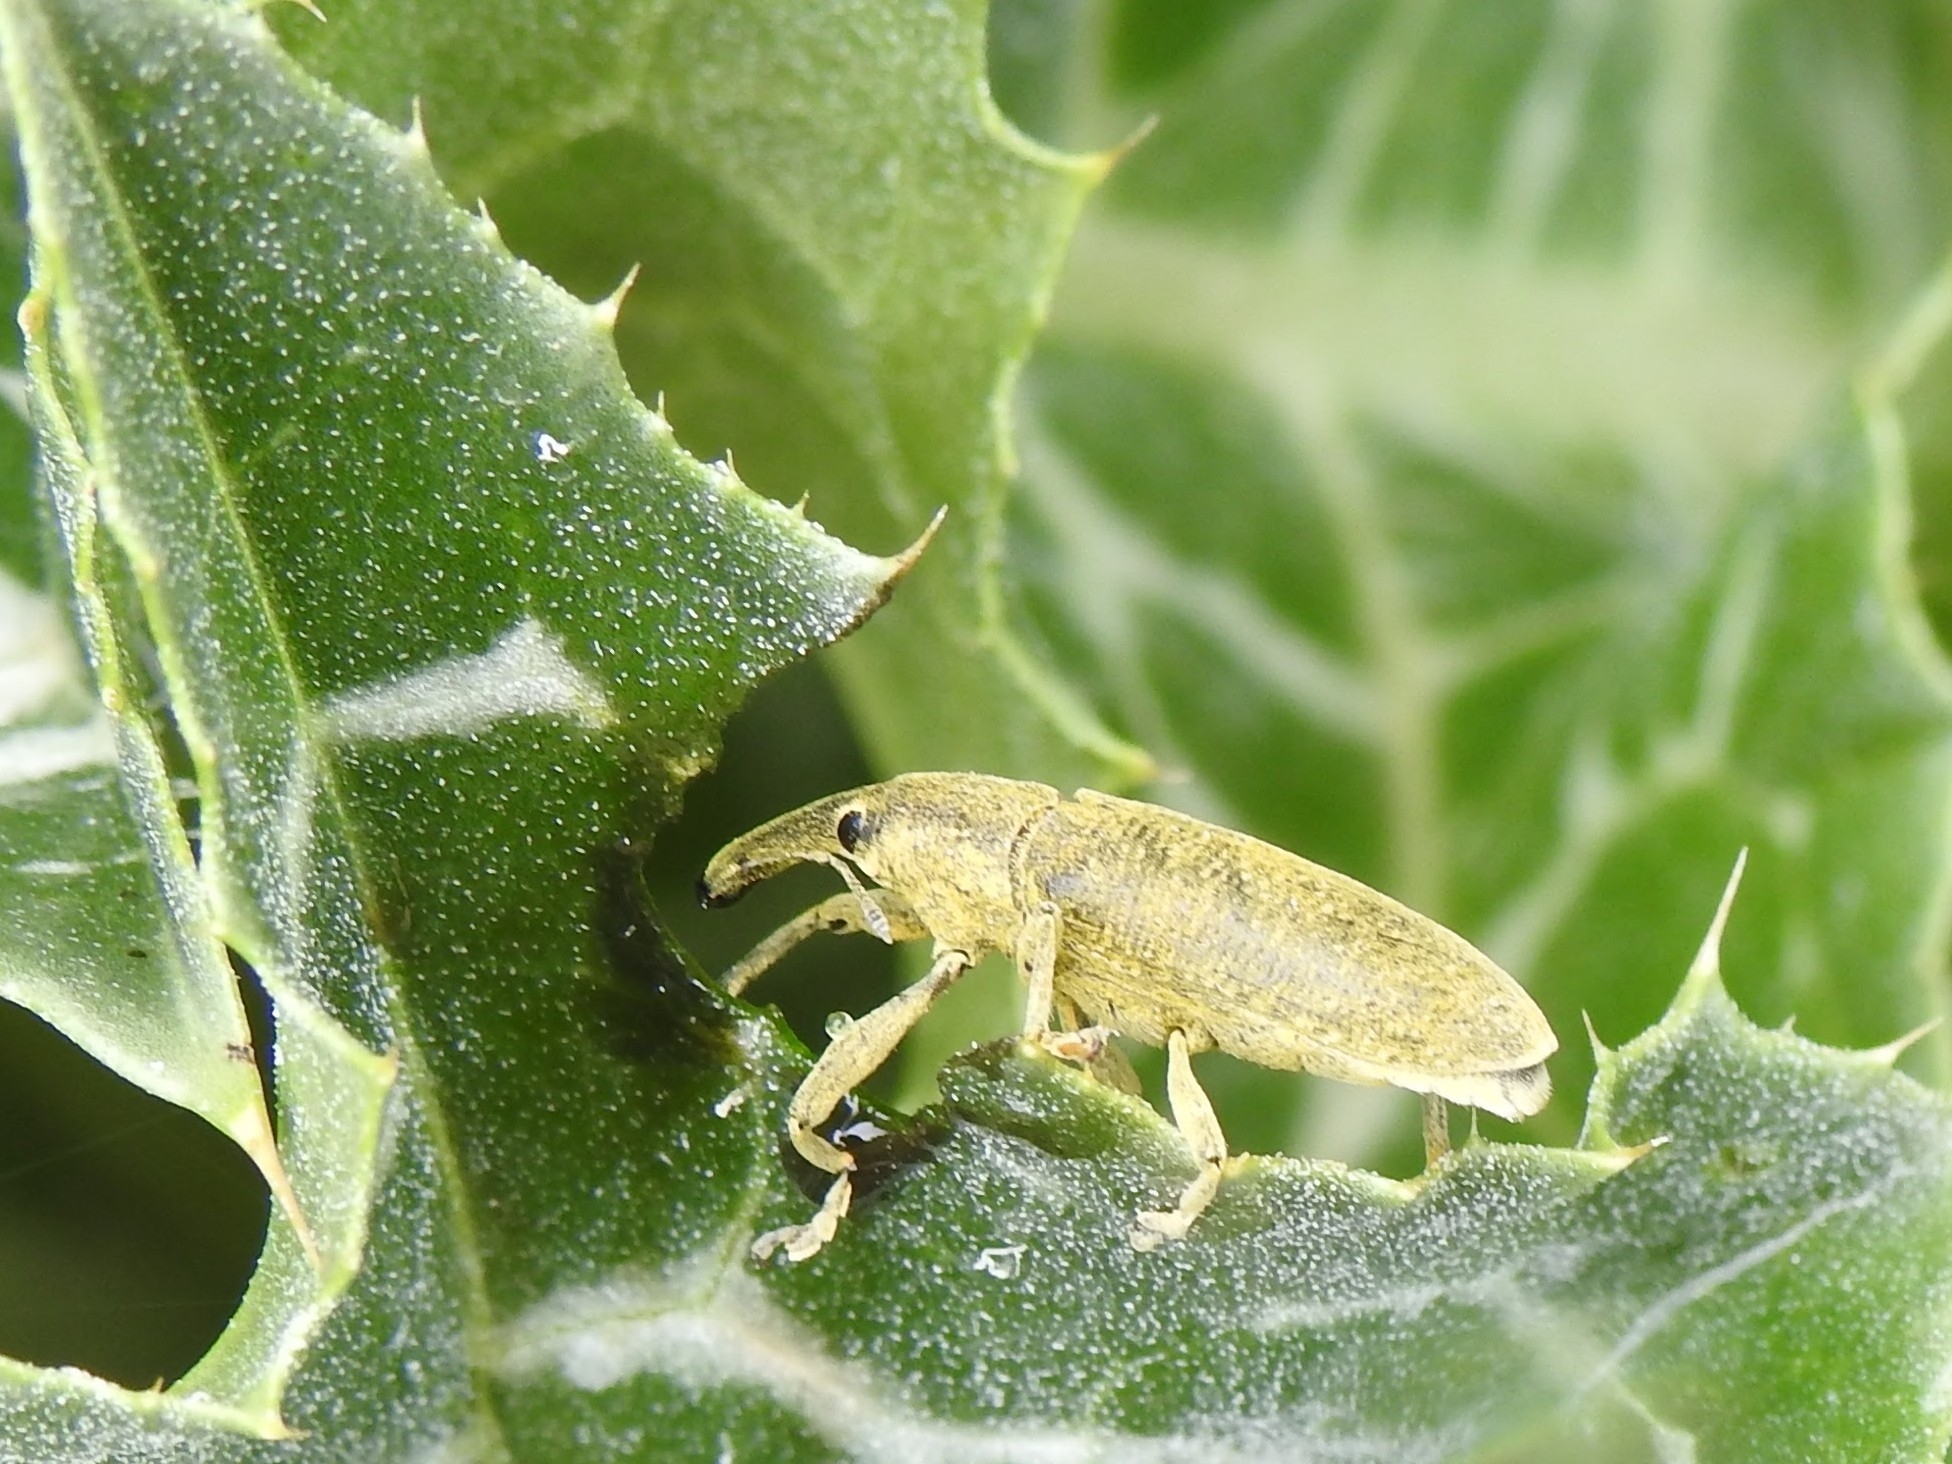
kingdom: Animalia
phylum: Arthropoda
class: Insecta
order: Coleoptera
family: Curculionidae
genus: Lixus
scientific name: Lixus pulverulentus
